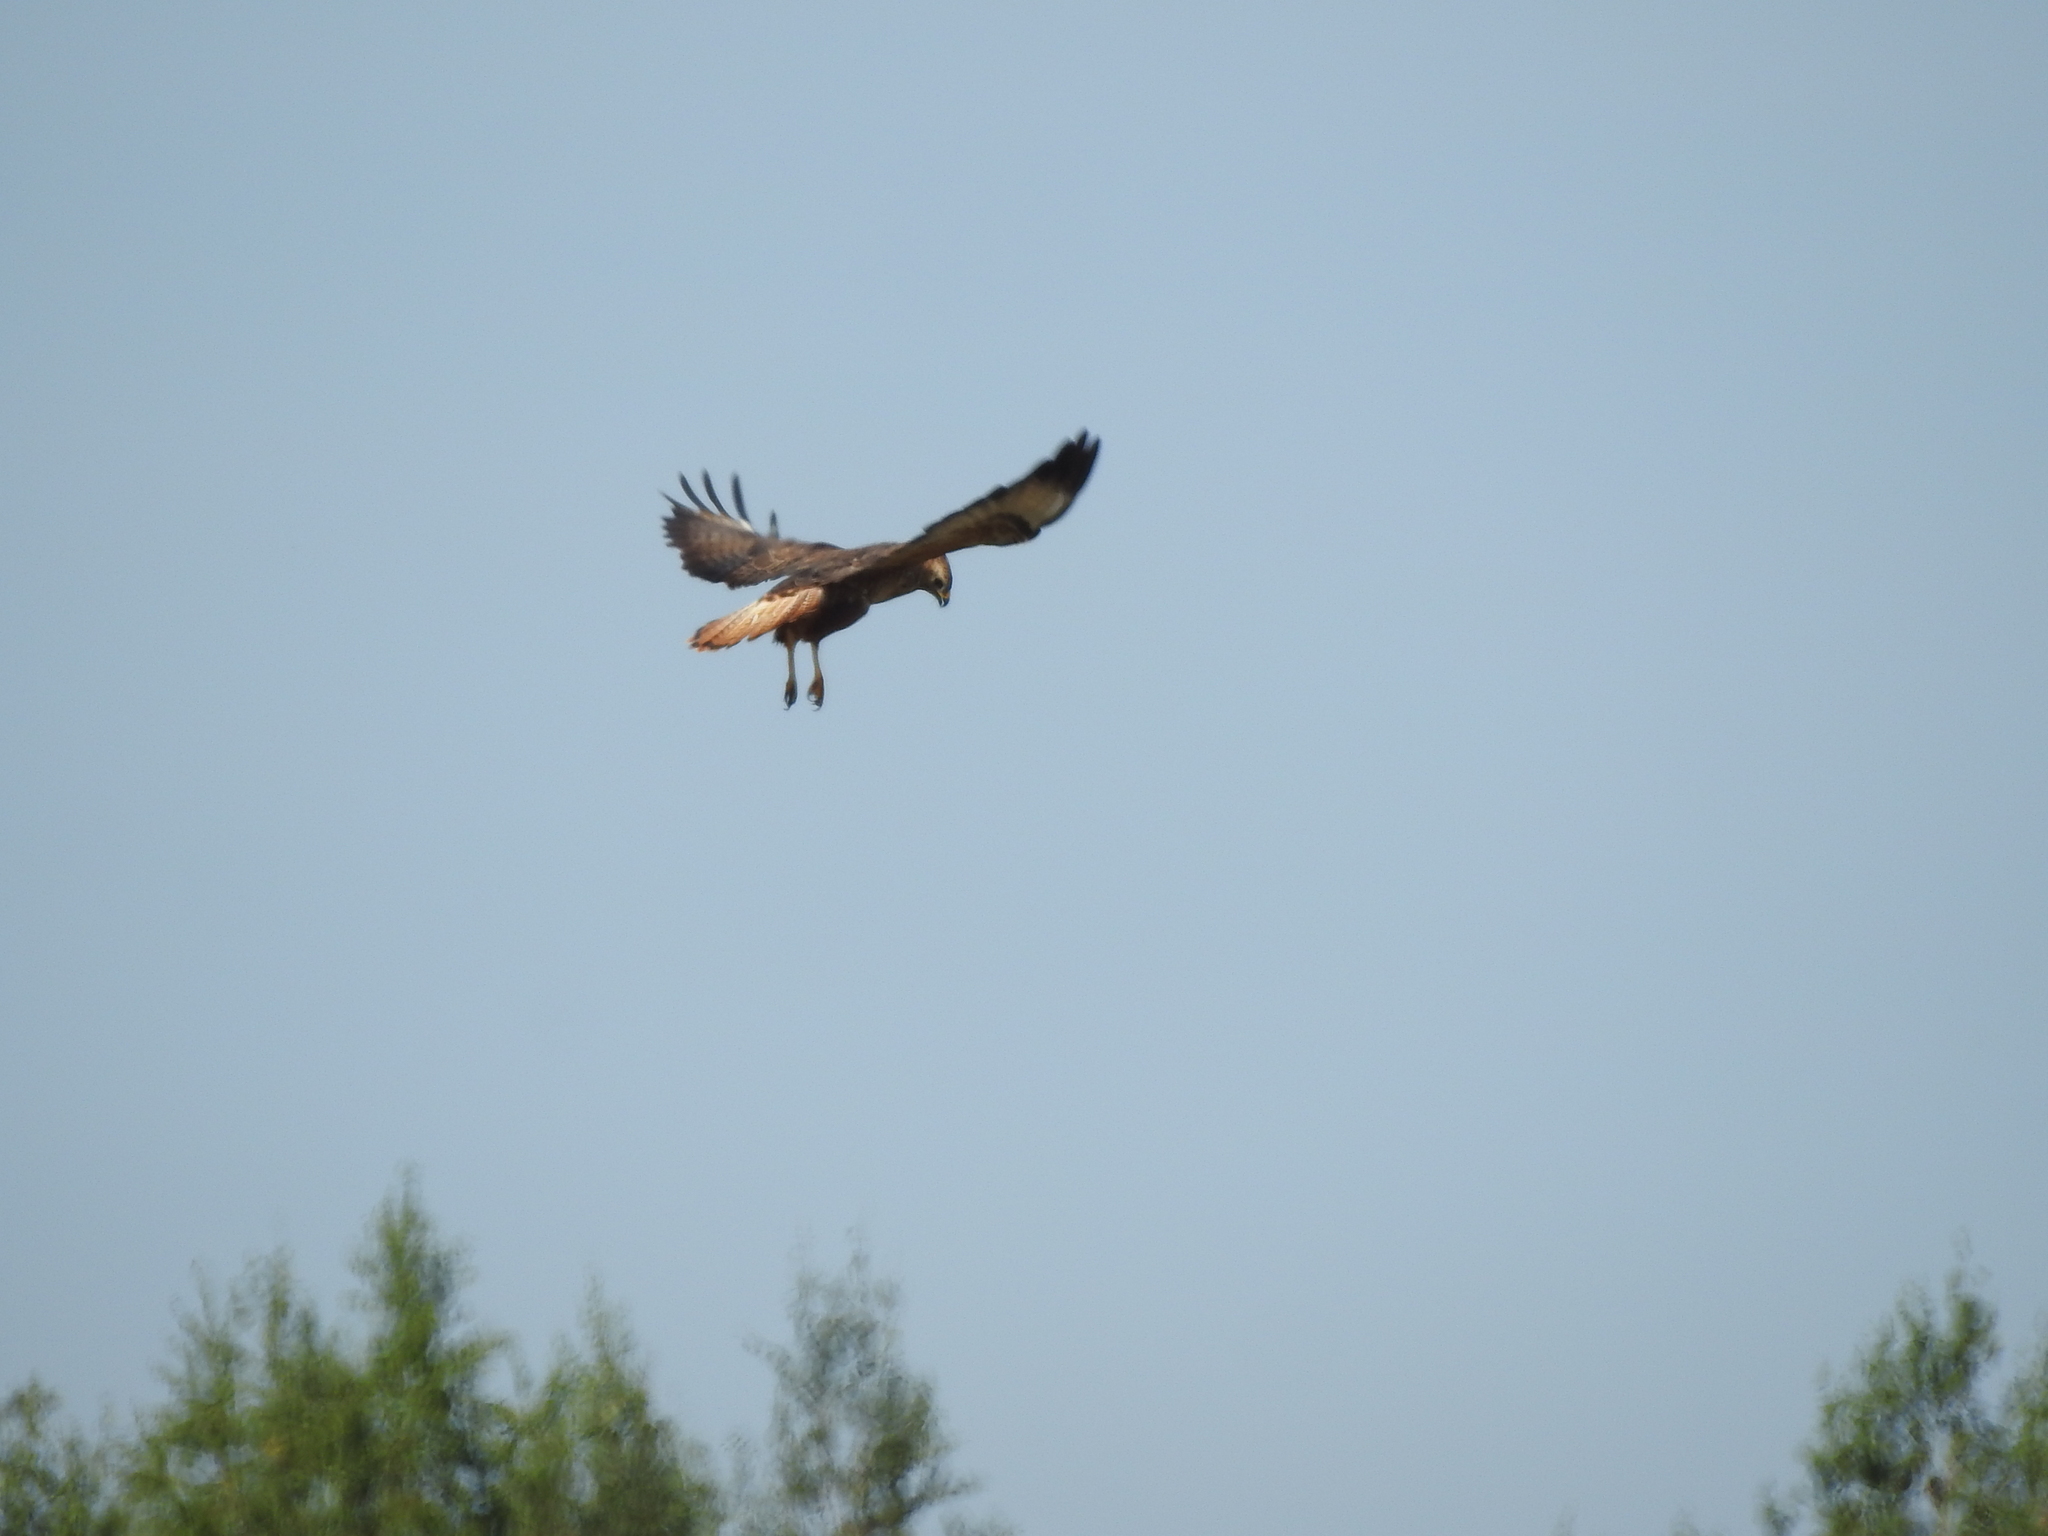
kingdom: Animalia
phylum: Chordata
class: Aves
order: Accipitriformes
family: Accipitridae
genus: Buteo
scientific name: Buteo buteo
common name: Common buzzard
